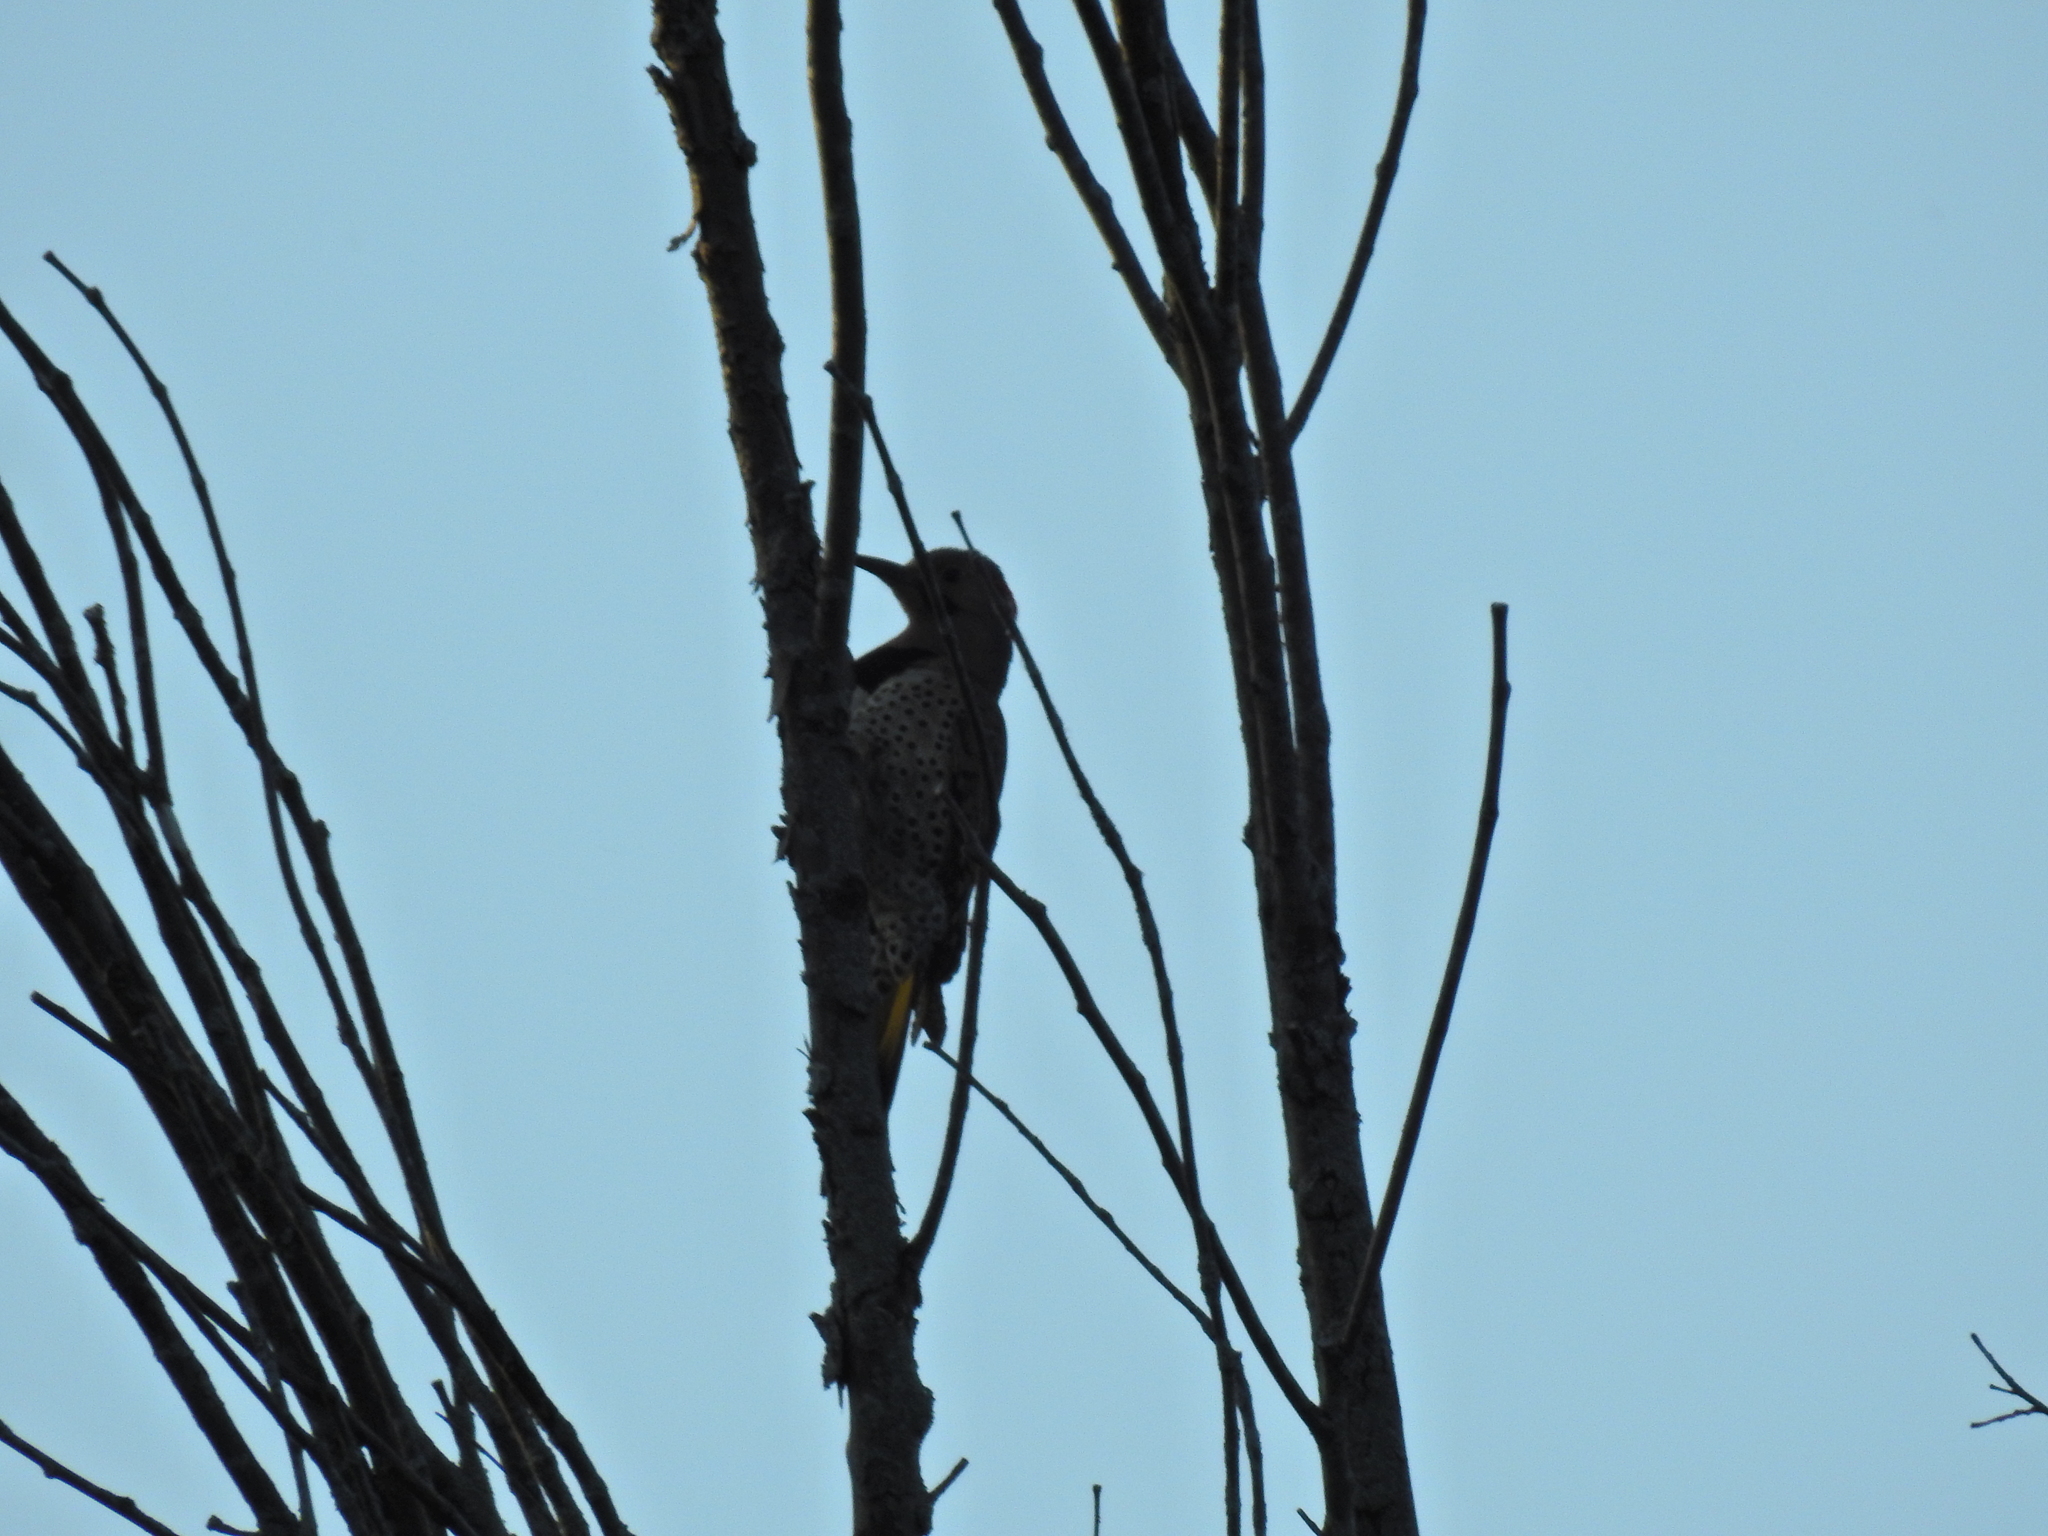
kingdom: Animalia
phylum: Chordata
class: Aves
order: Piciformes
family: Picidae
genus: Colaptes
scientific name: Colaptes auratus
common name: Northern flicker
